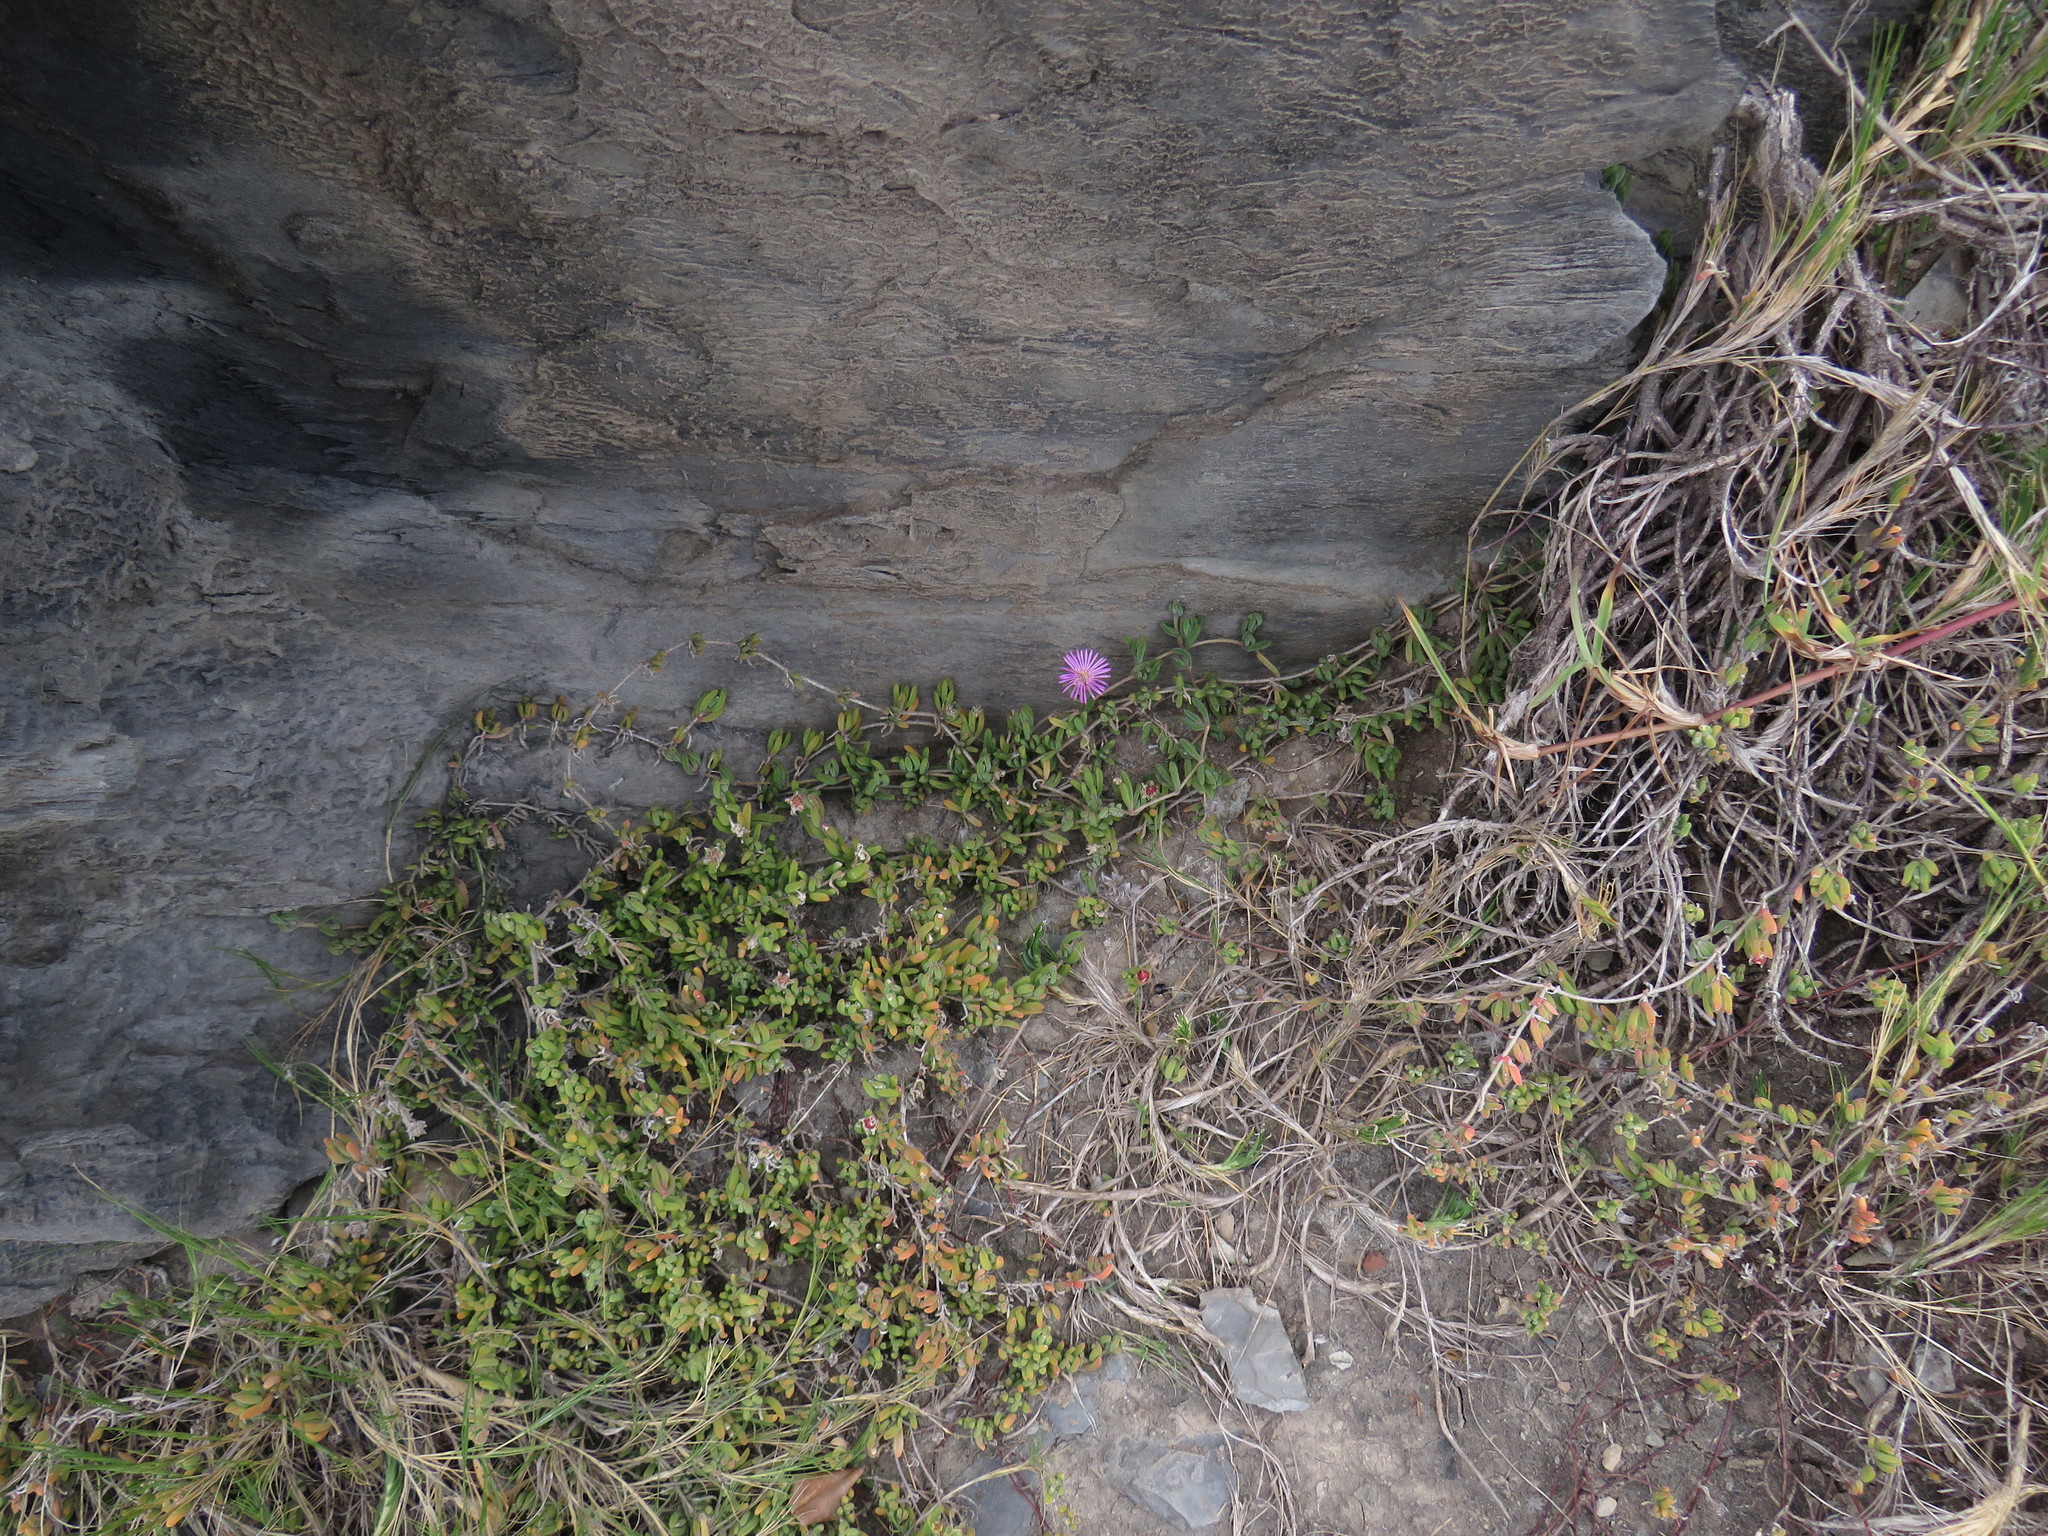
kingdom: Plantae
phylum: Tracheophyta
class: Magnoliopsida
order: Caryophyllales
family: Aizoaceae
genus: Drosanthemum
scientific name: Drosanthemum candens
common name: Rodondo-creeper
